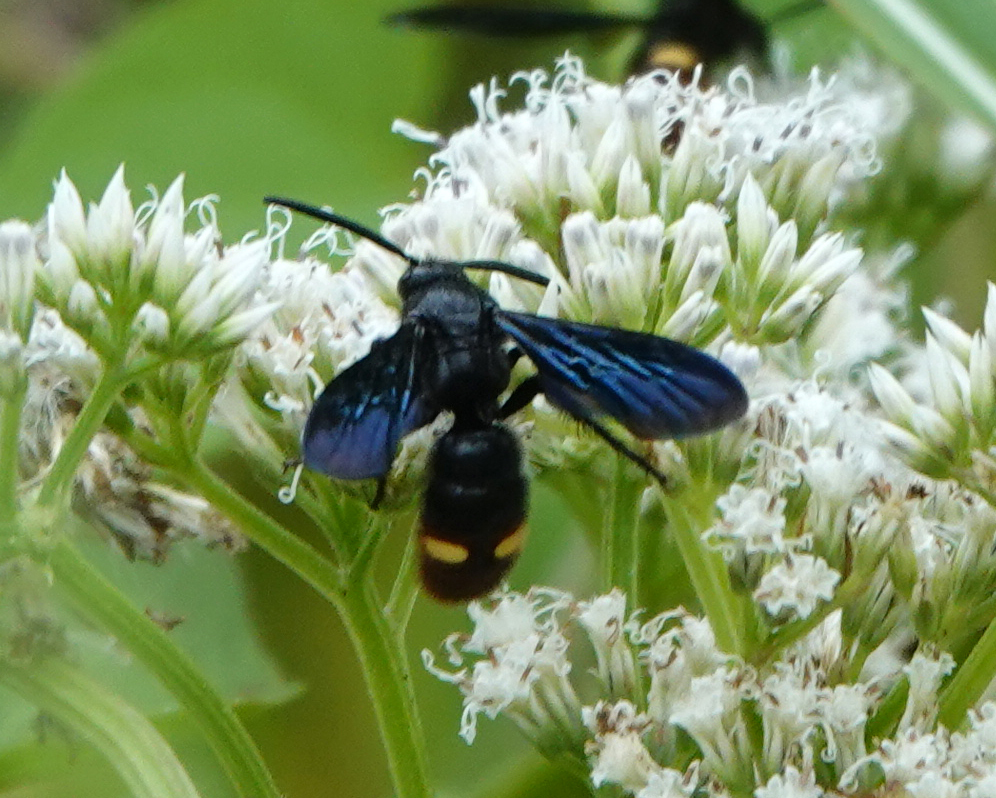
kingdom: Animalia
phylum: Arthropoda
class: Insecta
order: Hymenoptera
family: Scoliidae
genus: Scolia
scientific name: Scolia dubia
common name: Blue-winged scoliid wasp
